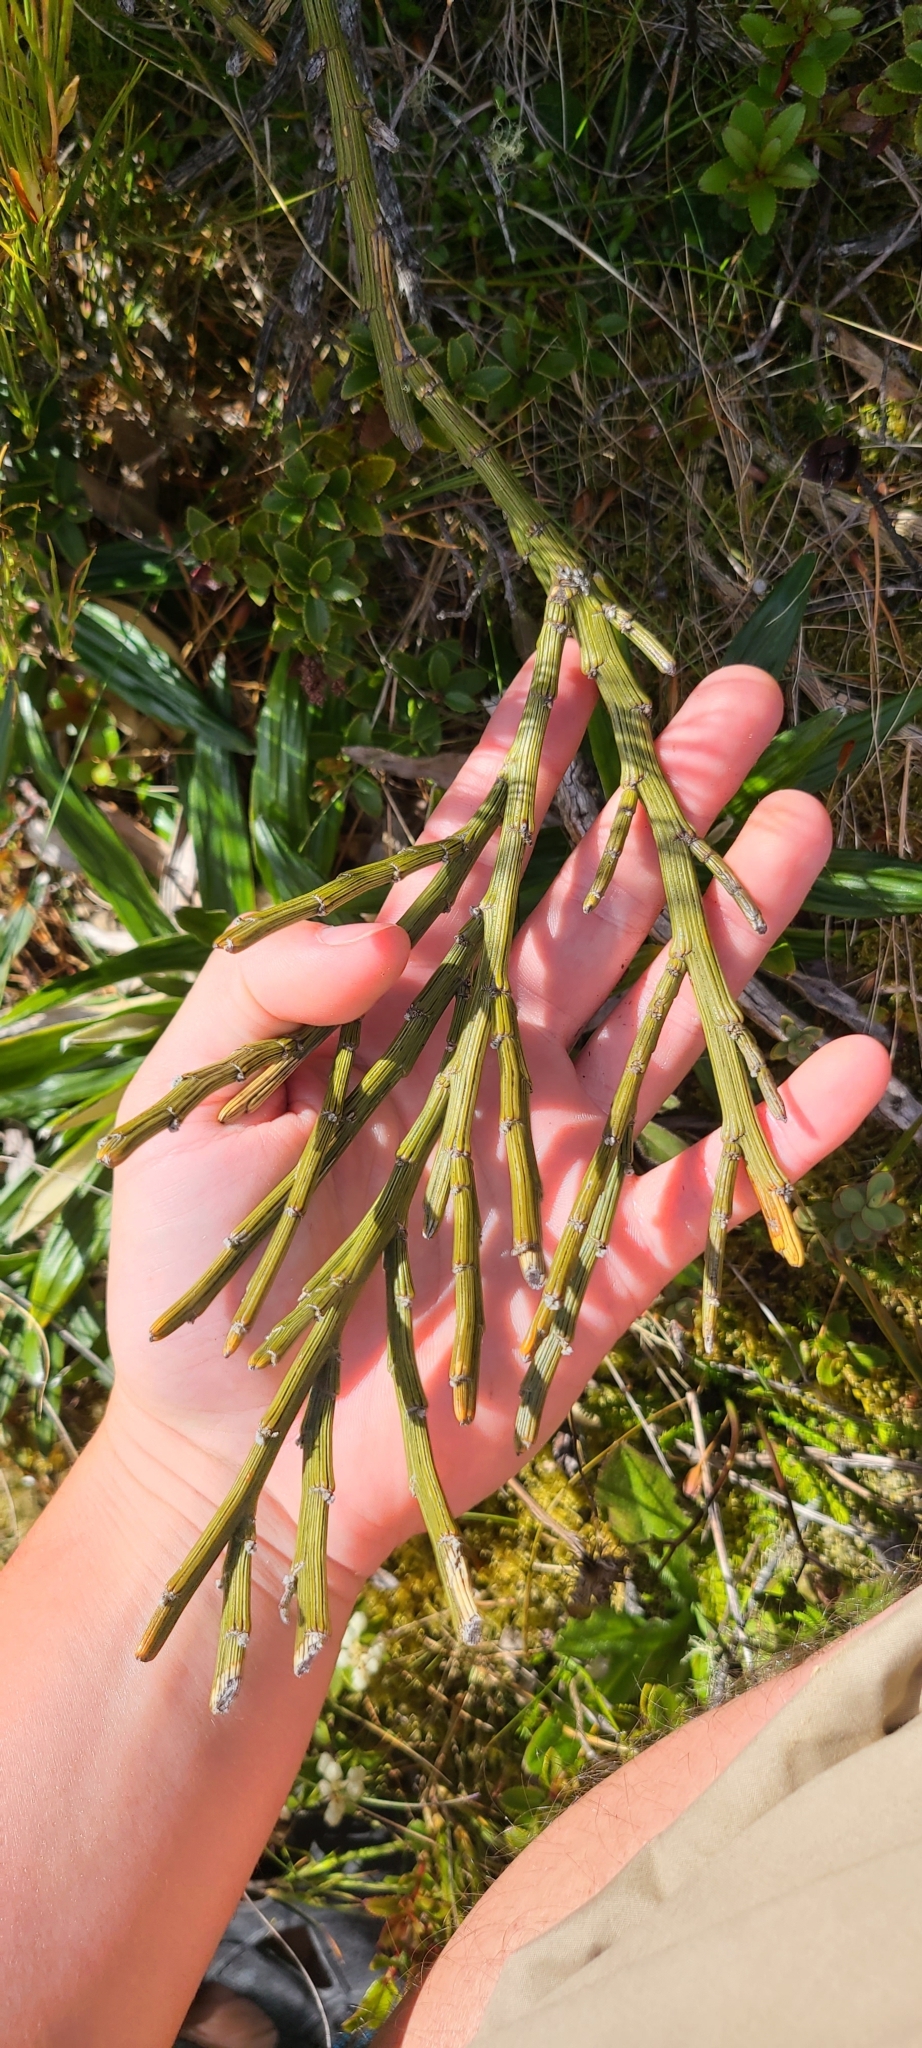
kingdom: Plantae
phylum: Tracheophyta
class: Magnoliopsida
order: Fabales
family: Fabaceae
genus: Carmichaelia
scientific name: Carmichaelia crassicaulis
